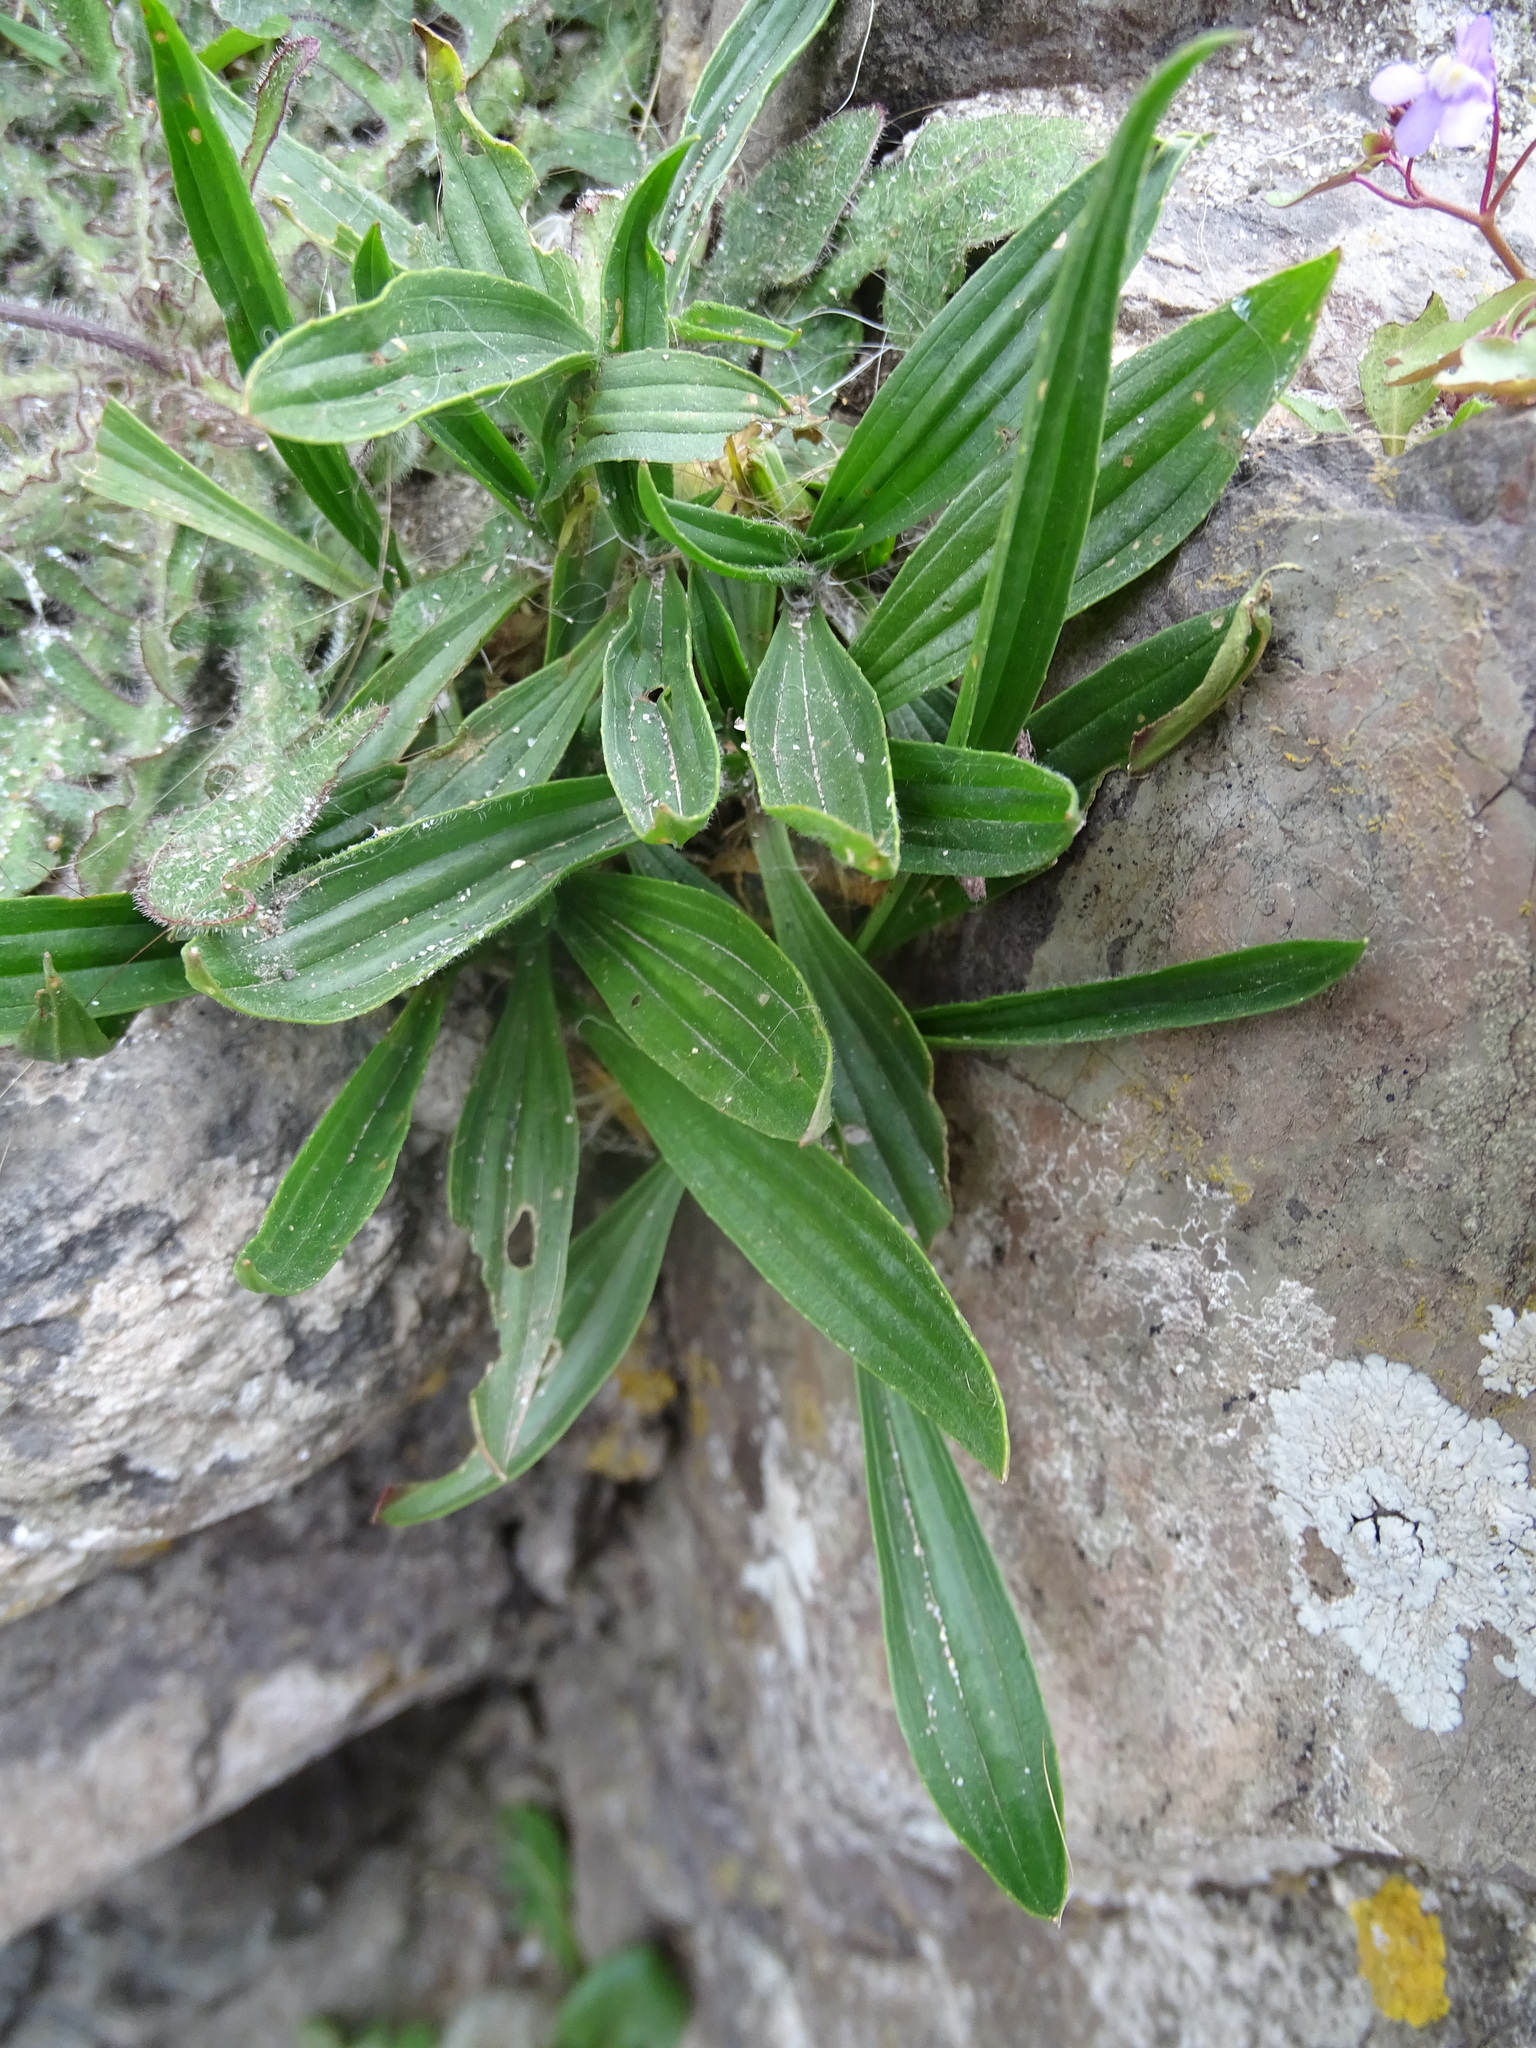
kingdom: Plantae
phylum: Tracheophyta
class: Magnoliopsida
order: Lamiales
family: Plantaginaceae
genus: Plantago
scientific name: Plantago lanceolata
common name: Ribwort plantain
